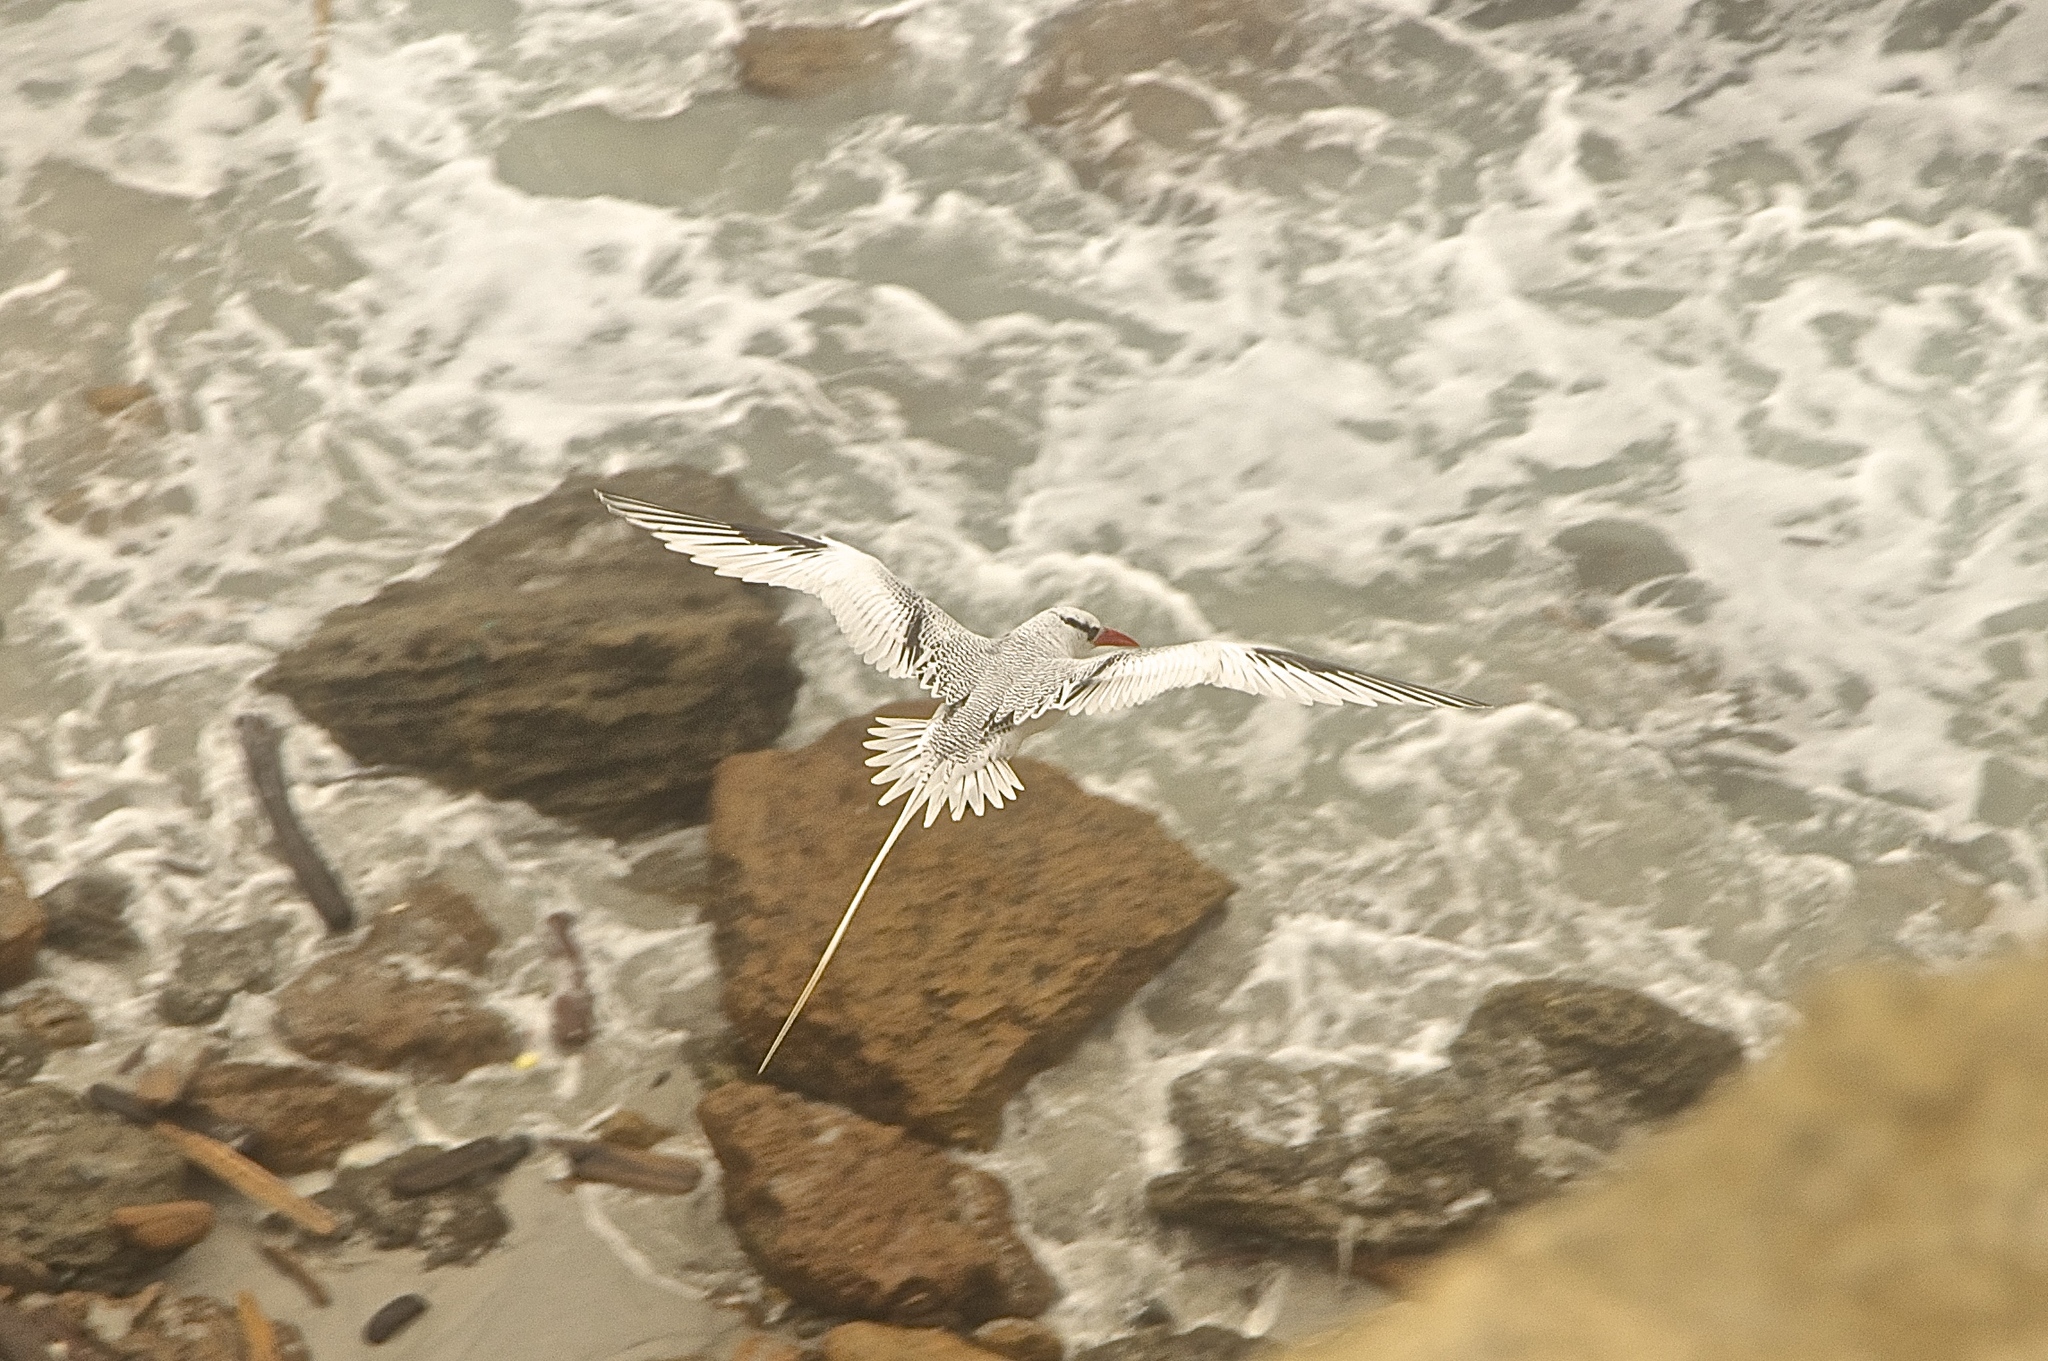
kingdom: Animalia
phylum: Chordata
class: Aves
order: Phaethontiformes
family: Phaethontidae
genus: Phaethon
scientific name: Phaethon aethereus
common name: Red-billed tropicbird
